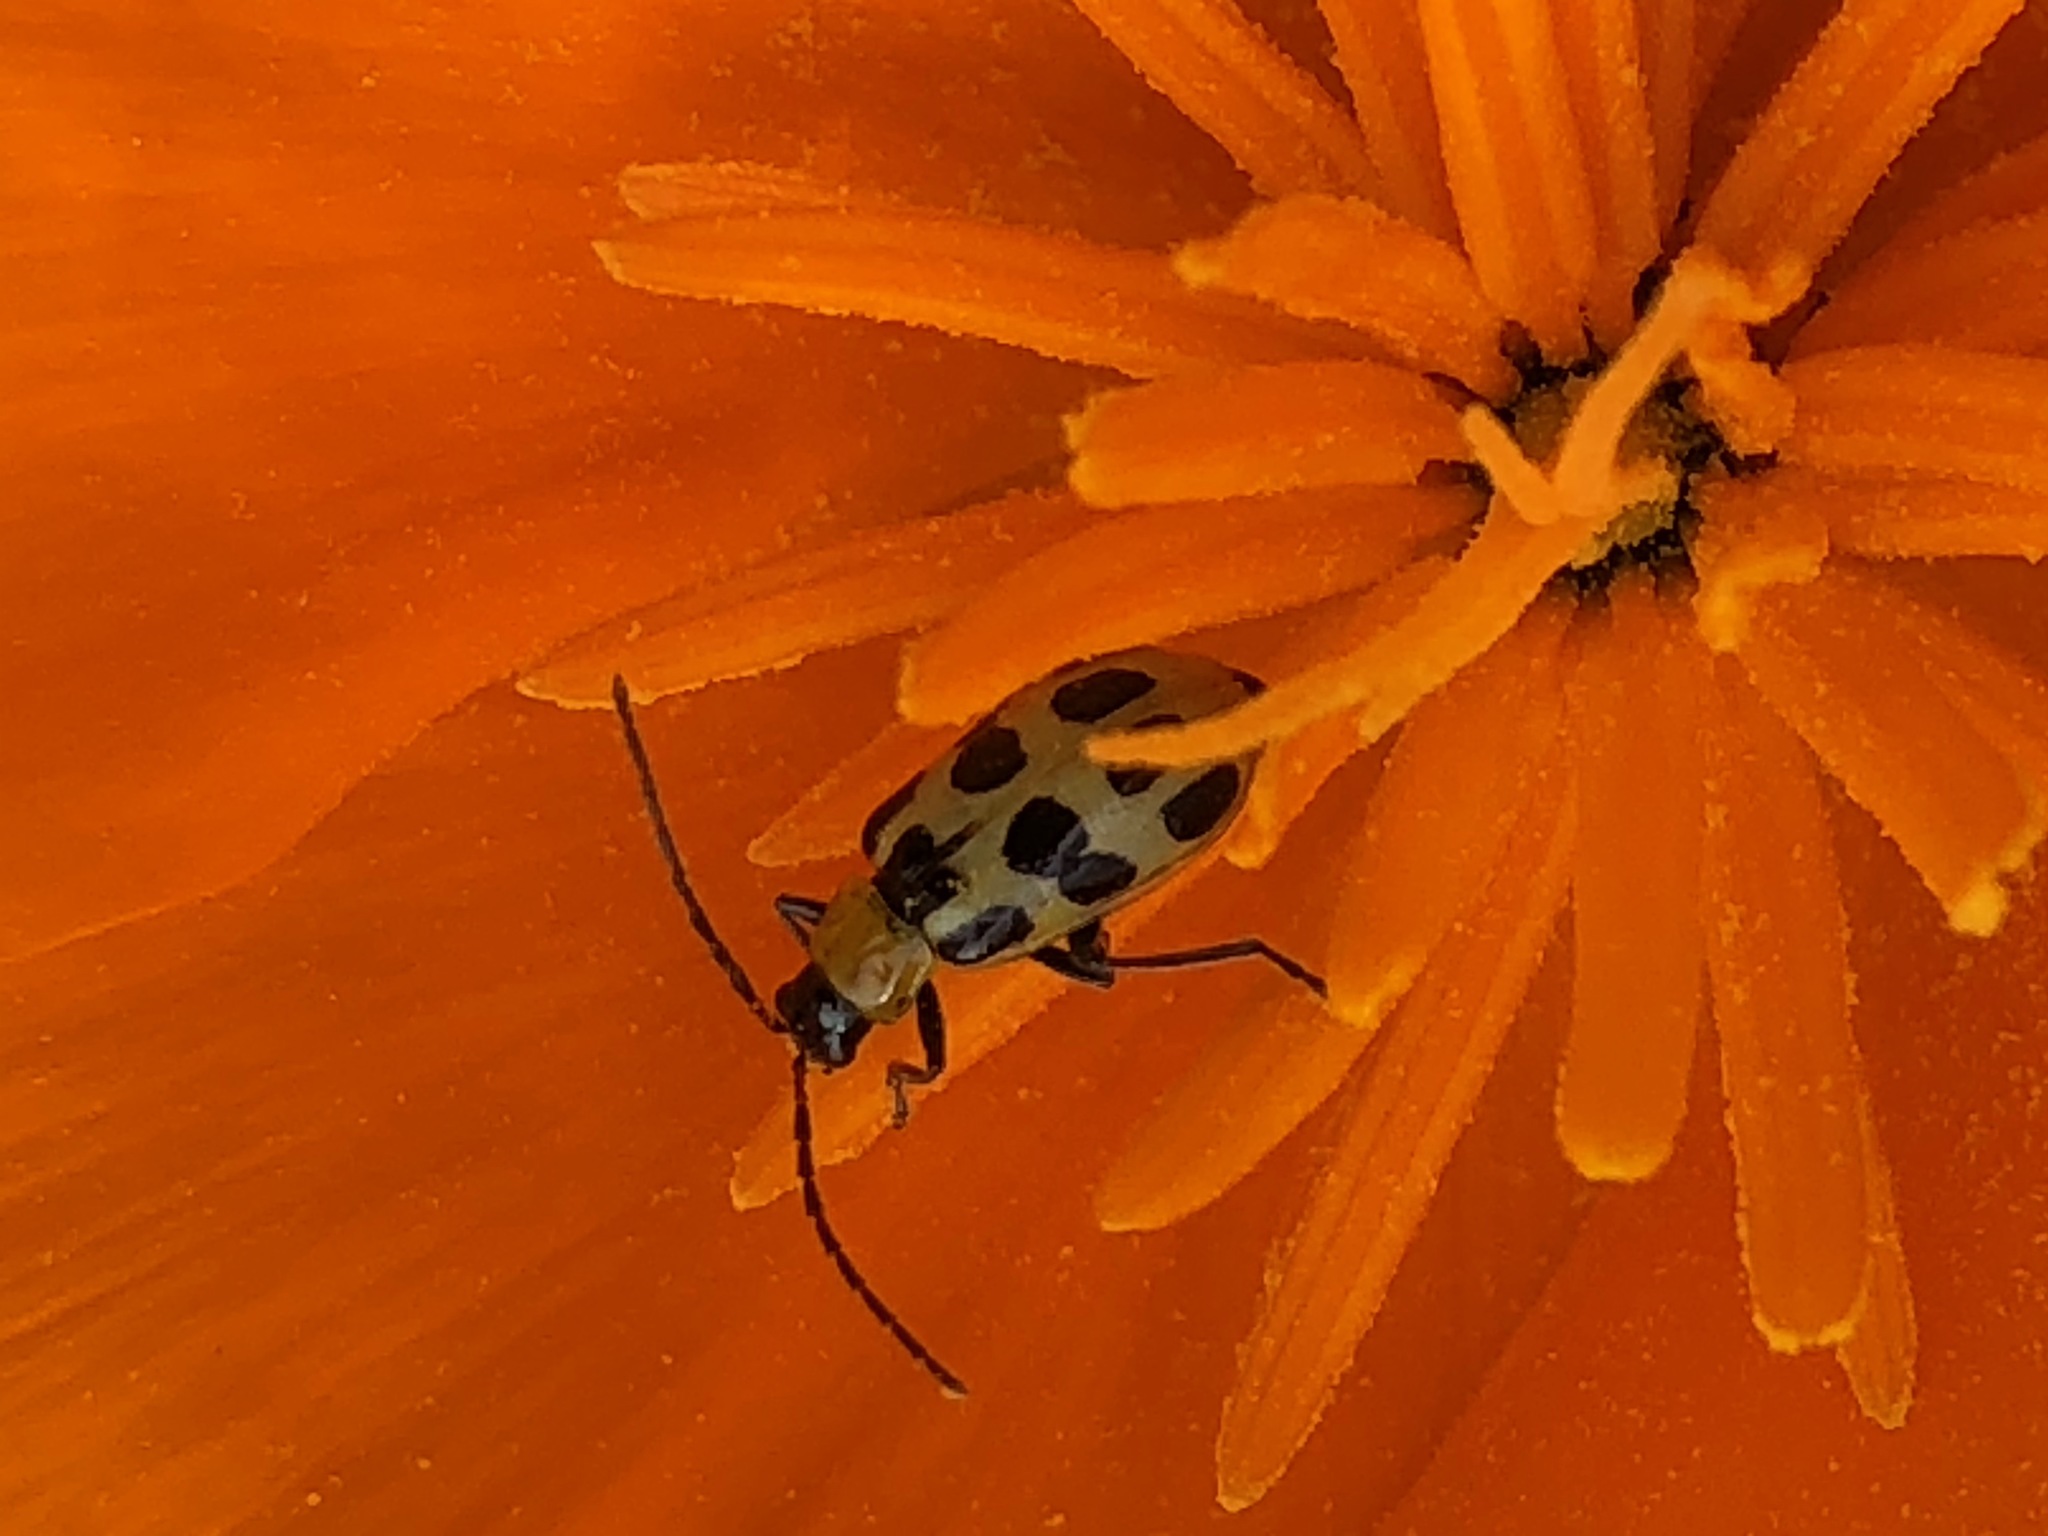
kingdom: Animalia
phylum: Arthropoda
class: Insecta
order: Coleoptera
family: Chrysomelidae
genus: Diabrotica
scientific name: Diabrotica undecimpunctata
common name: Spotted cucumber beetle
